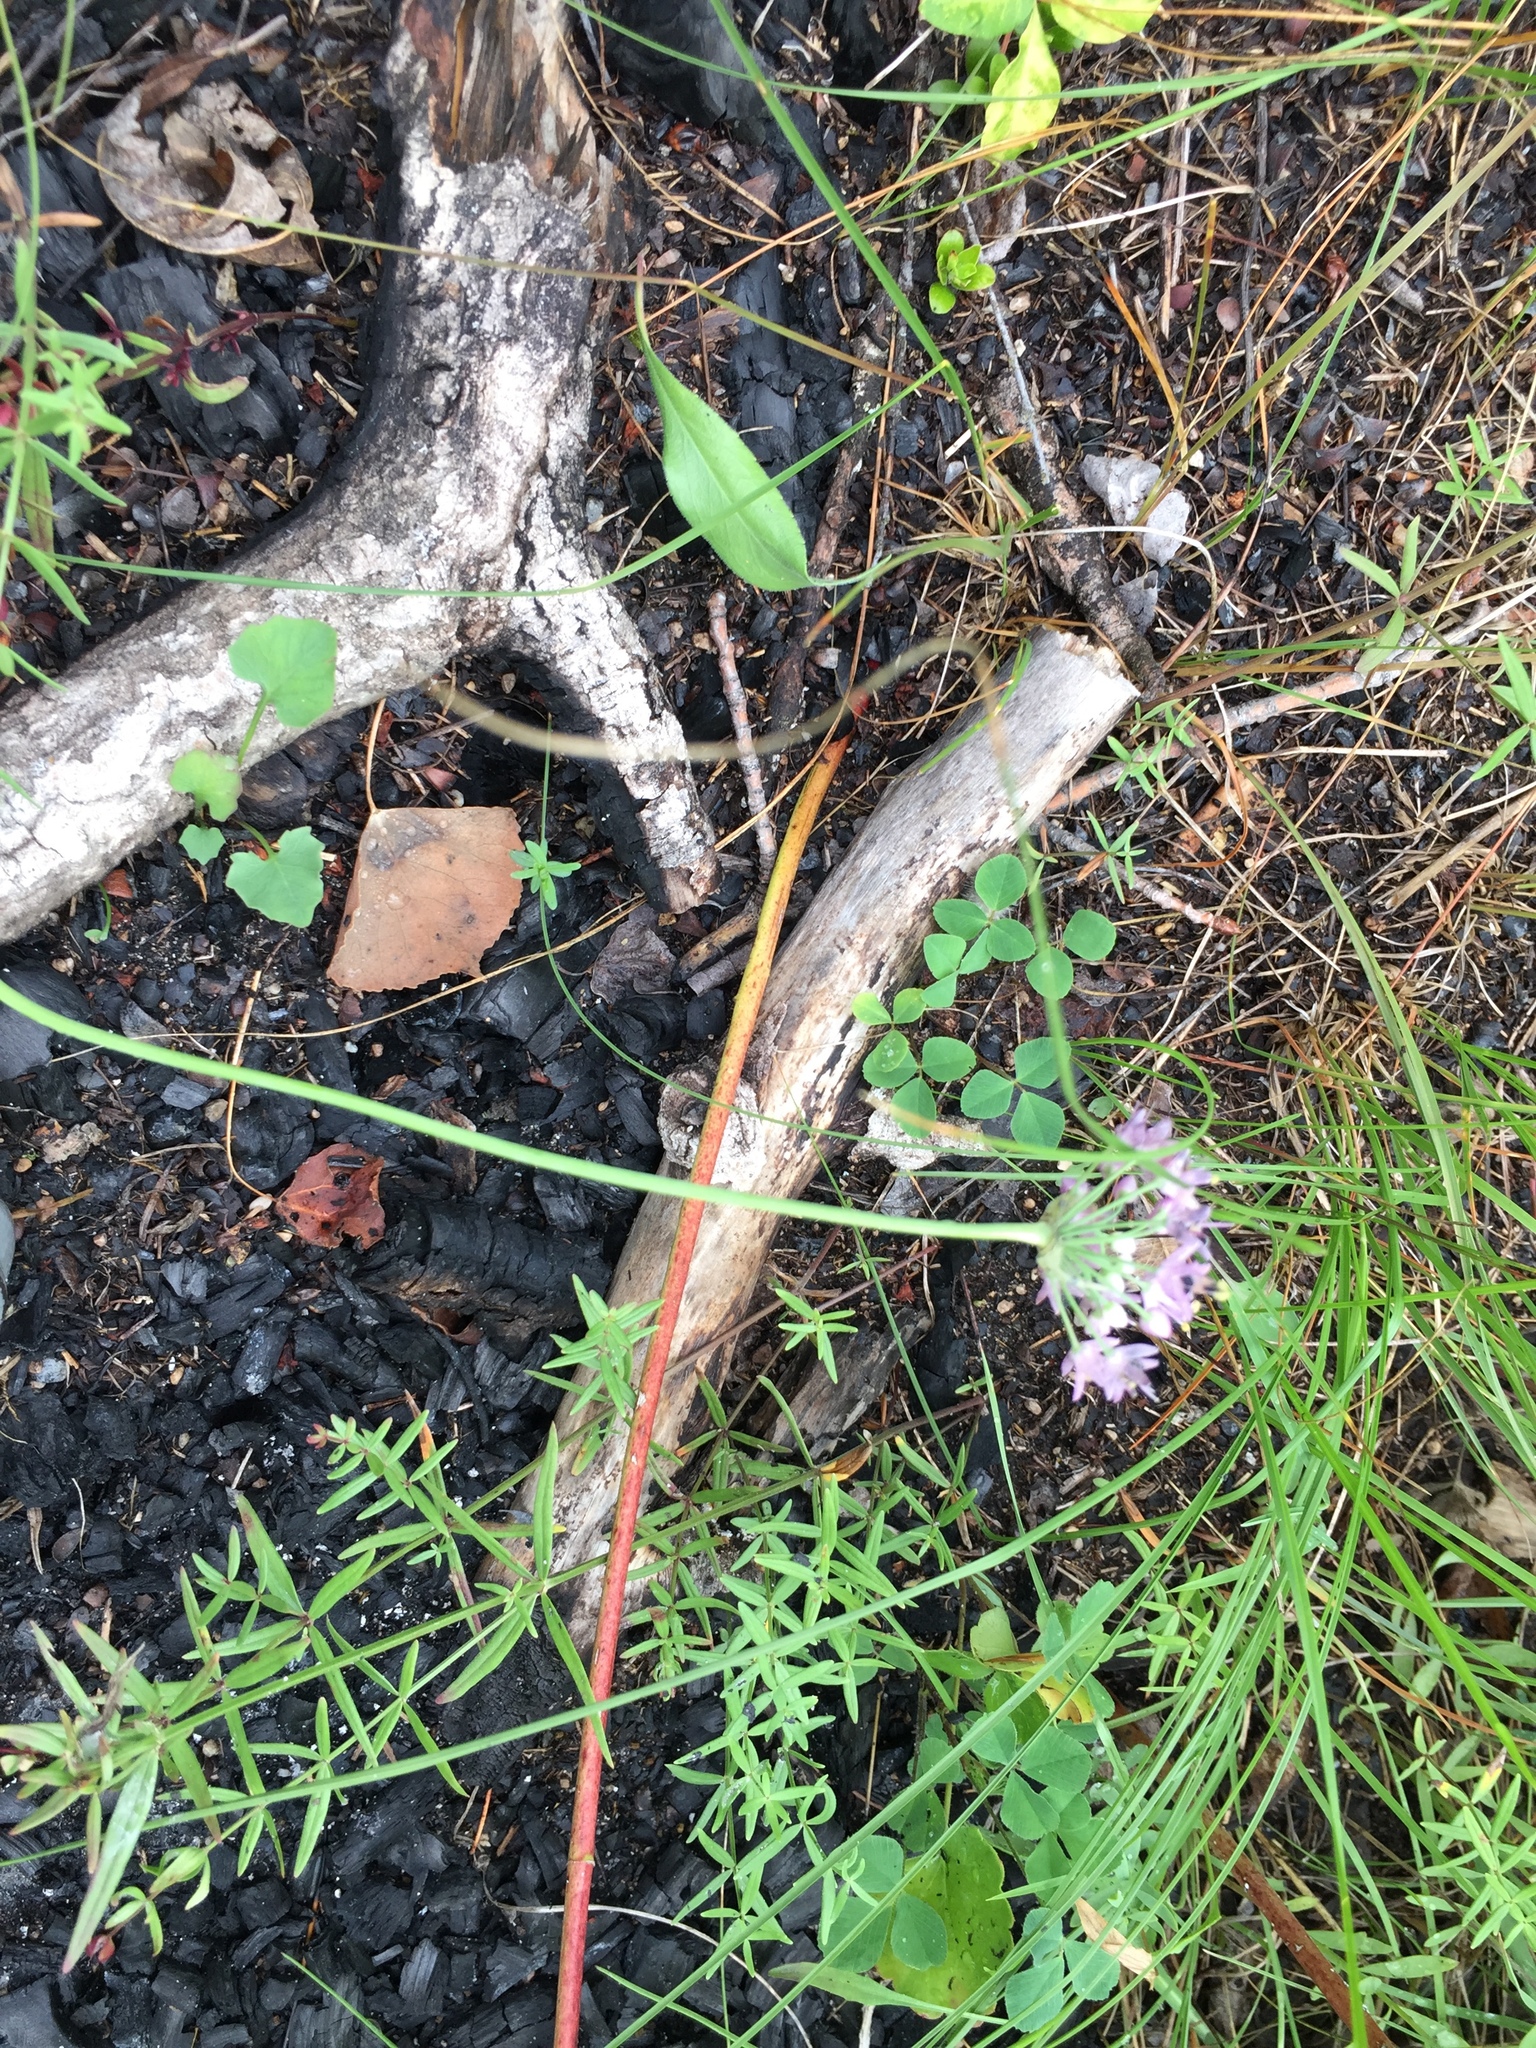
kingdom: Plantae
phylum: Tracheophyta
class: Liliopsida
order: Asparagales
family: Amaryllidaceae
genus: Allium
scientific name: Allium stellatum
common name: Autumn onion
